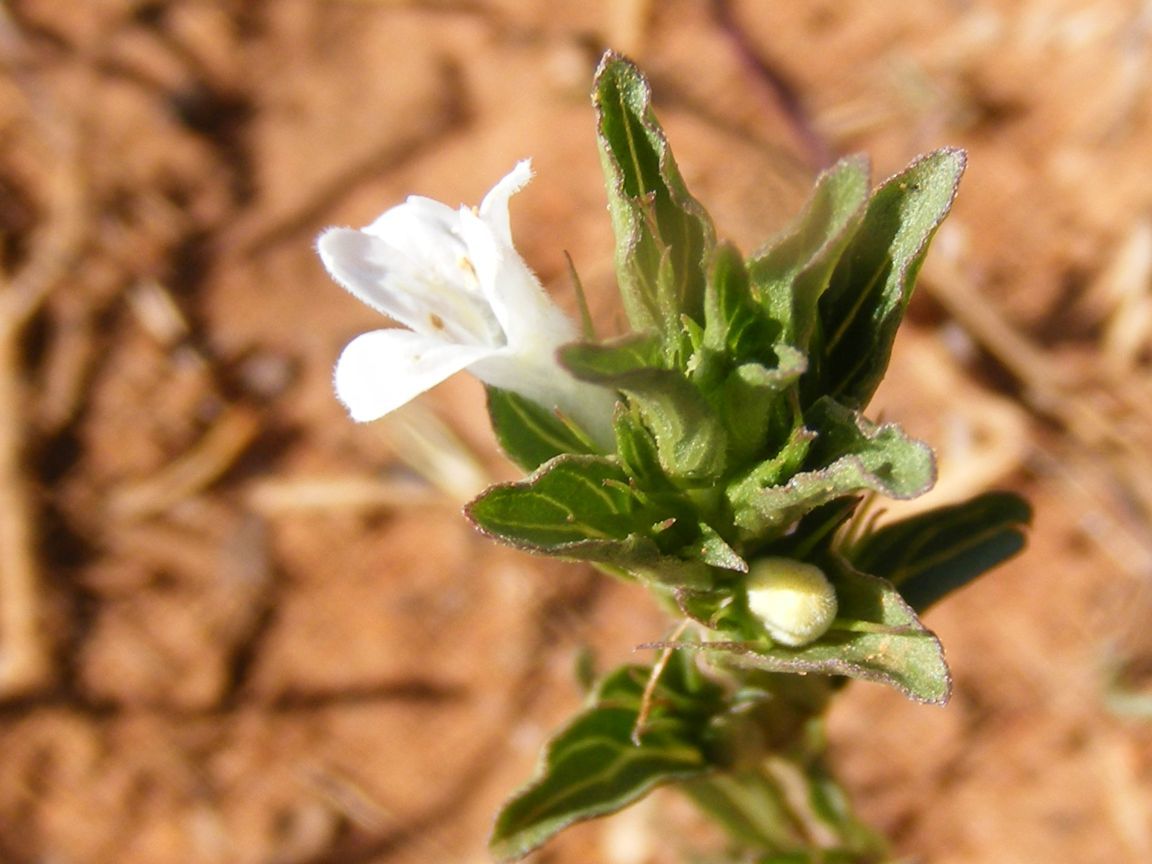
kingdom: Plantae
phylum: Tracheophyta
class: Magnoliopsida
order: Lamiales
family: Acanthaceae
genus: Dyschoriste
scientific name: Dyschoriste costata
